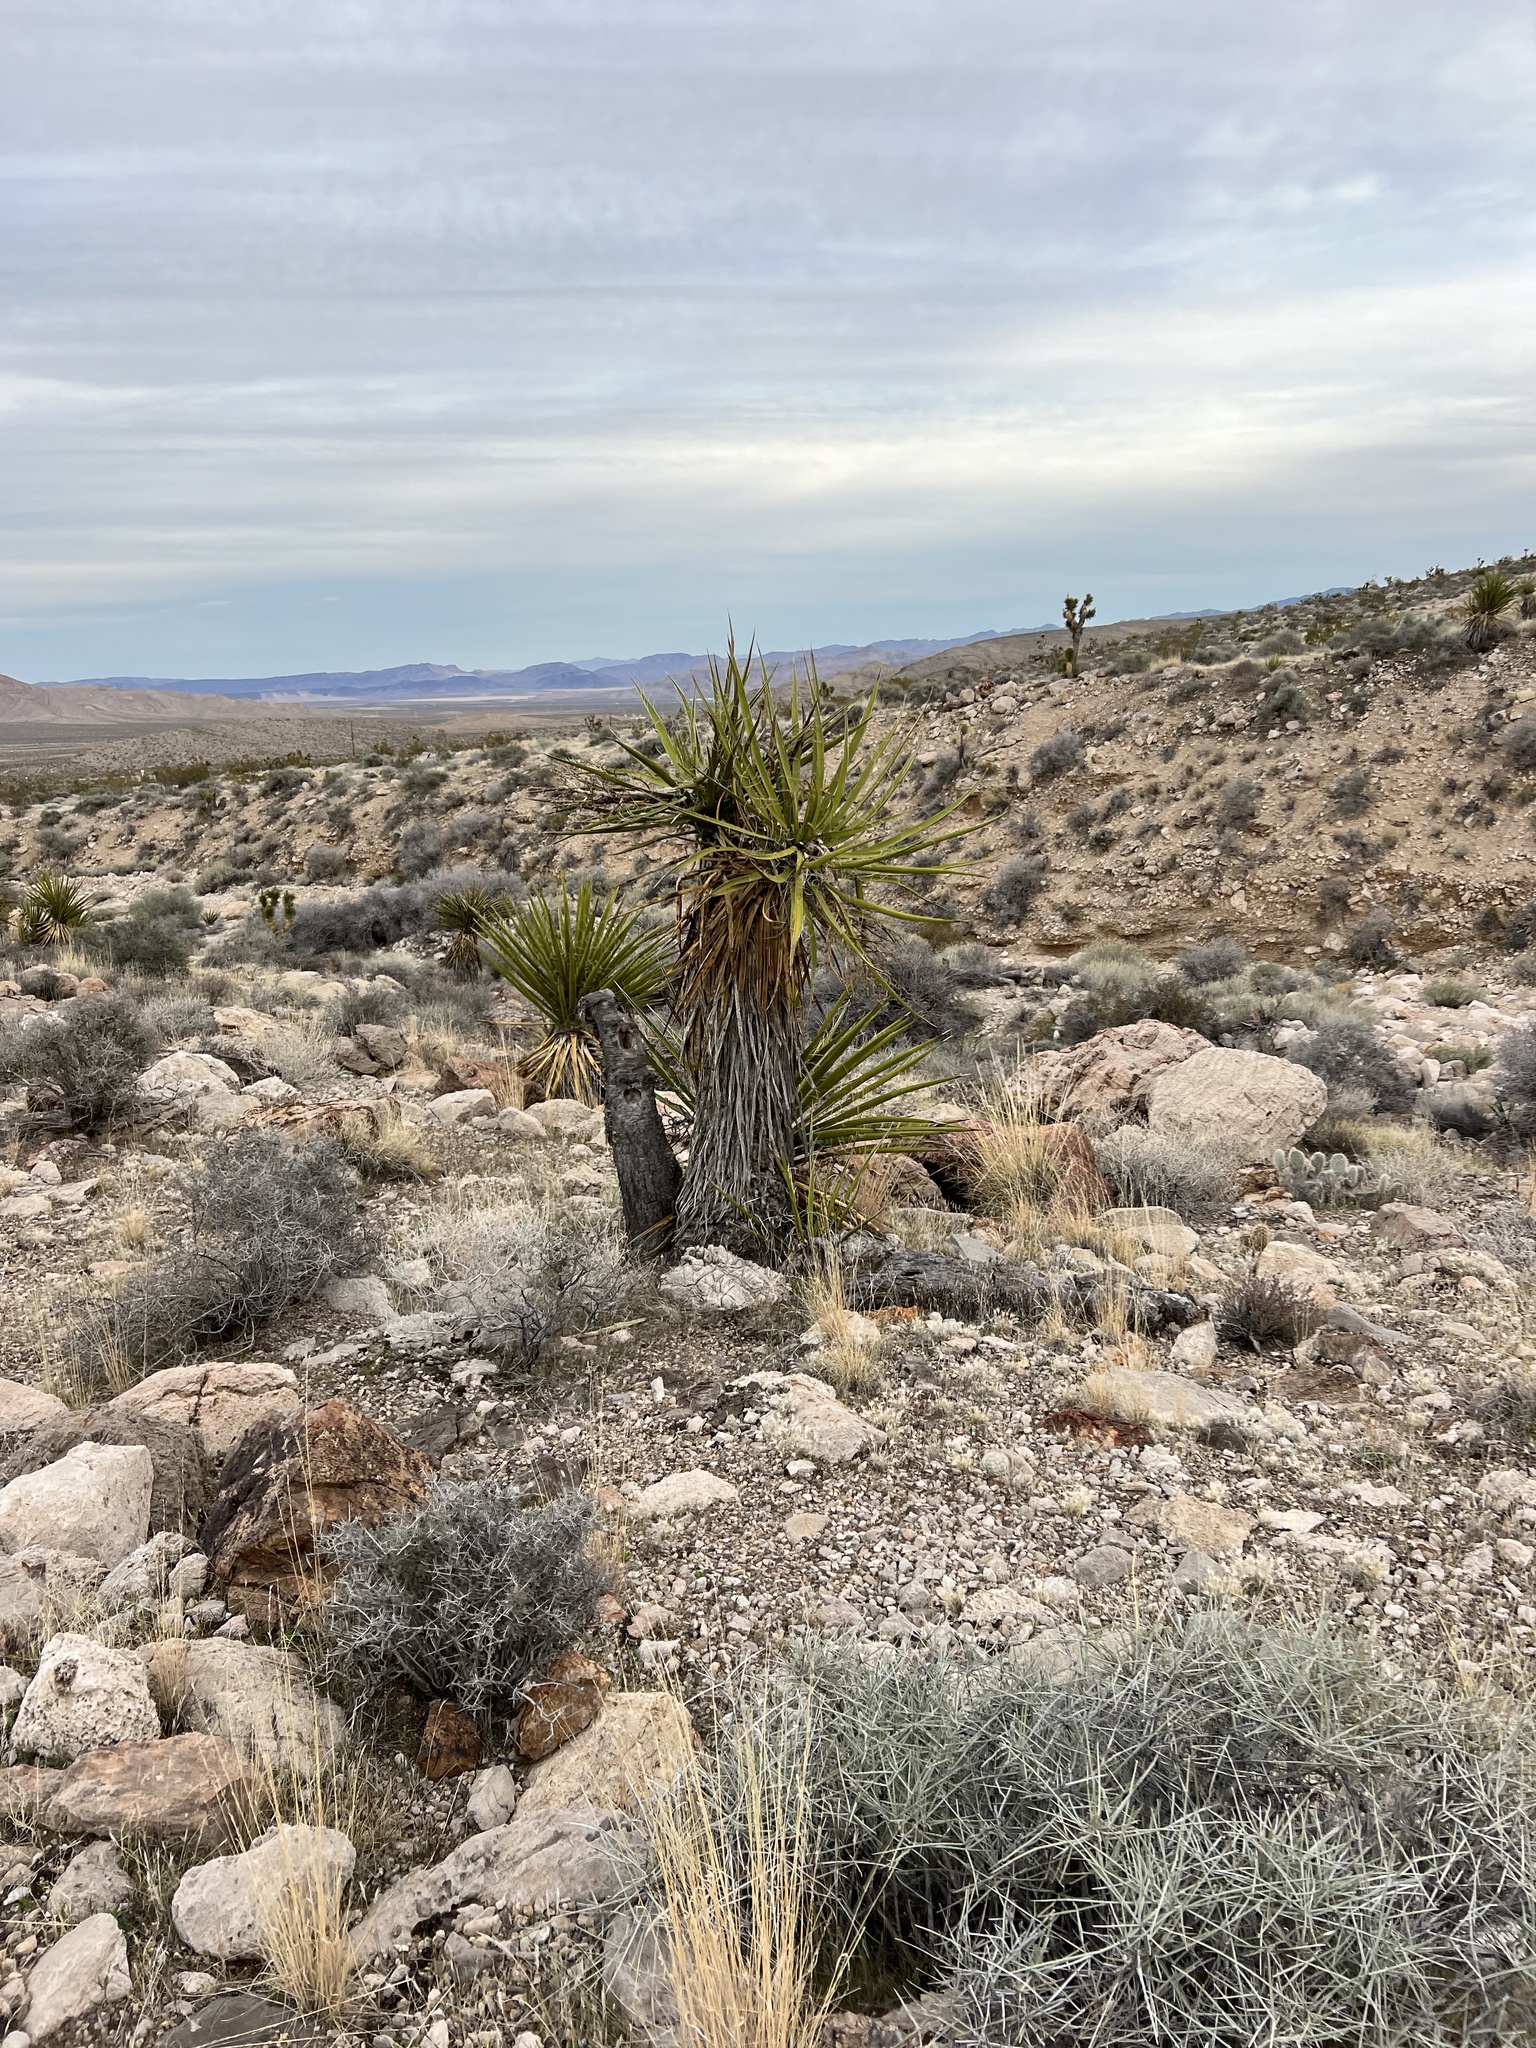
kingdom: Plantae
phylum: Tracheophyta
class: Liliopsida
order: Asparagales
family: Asparagaceae
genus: Yucca
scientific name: Yucca schidigera
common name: Mojave yucca
